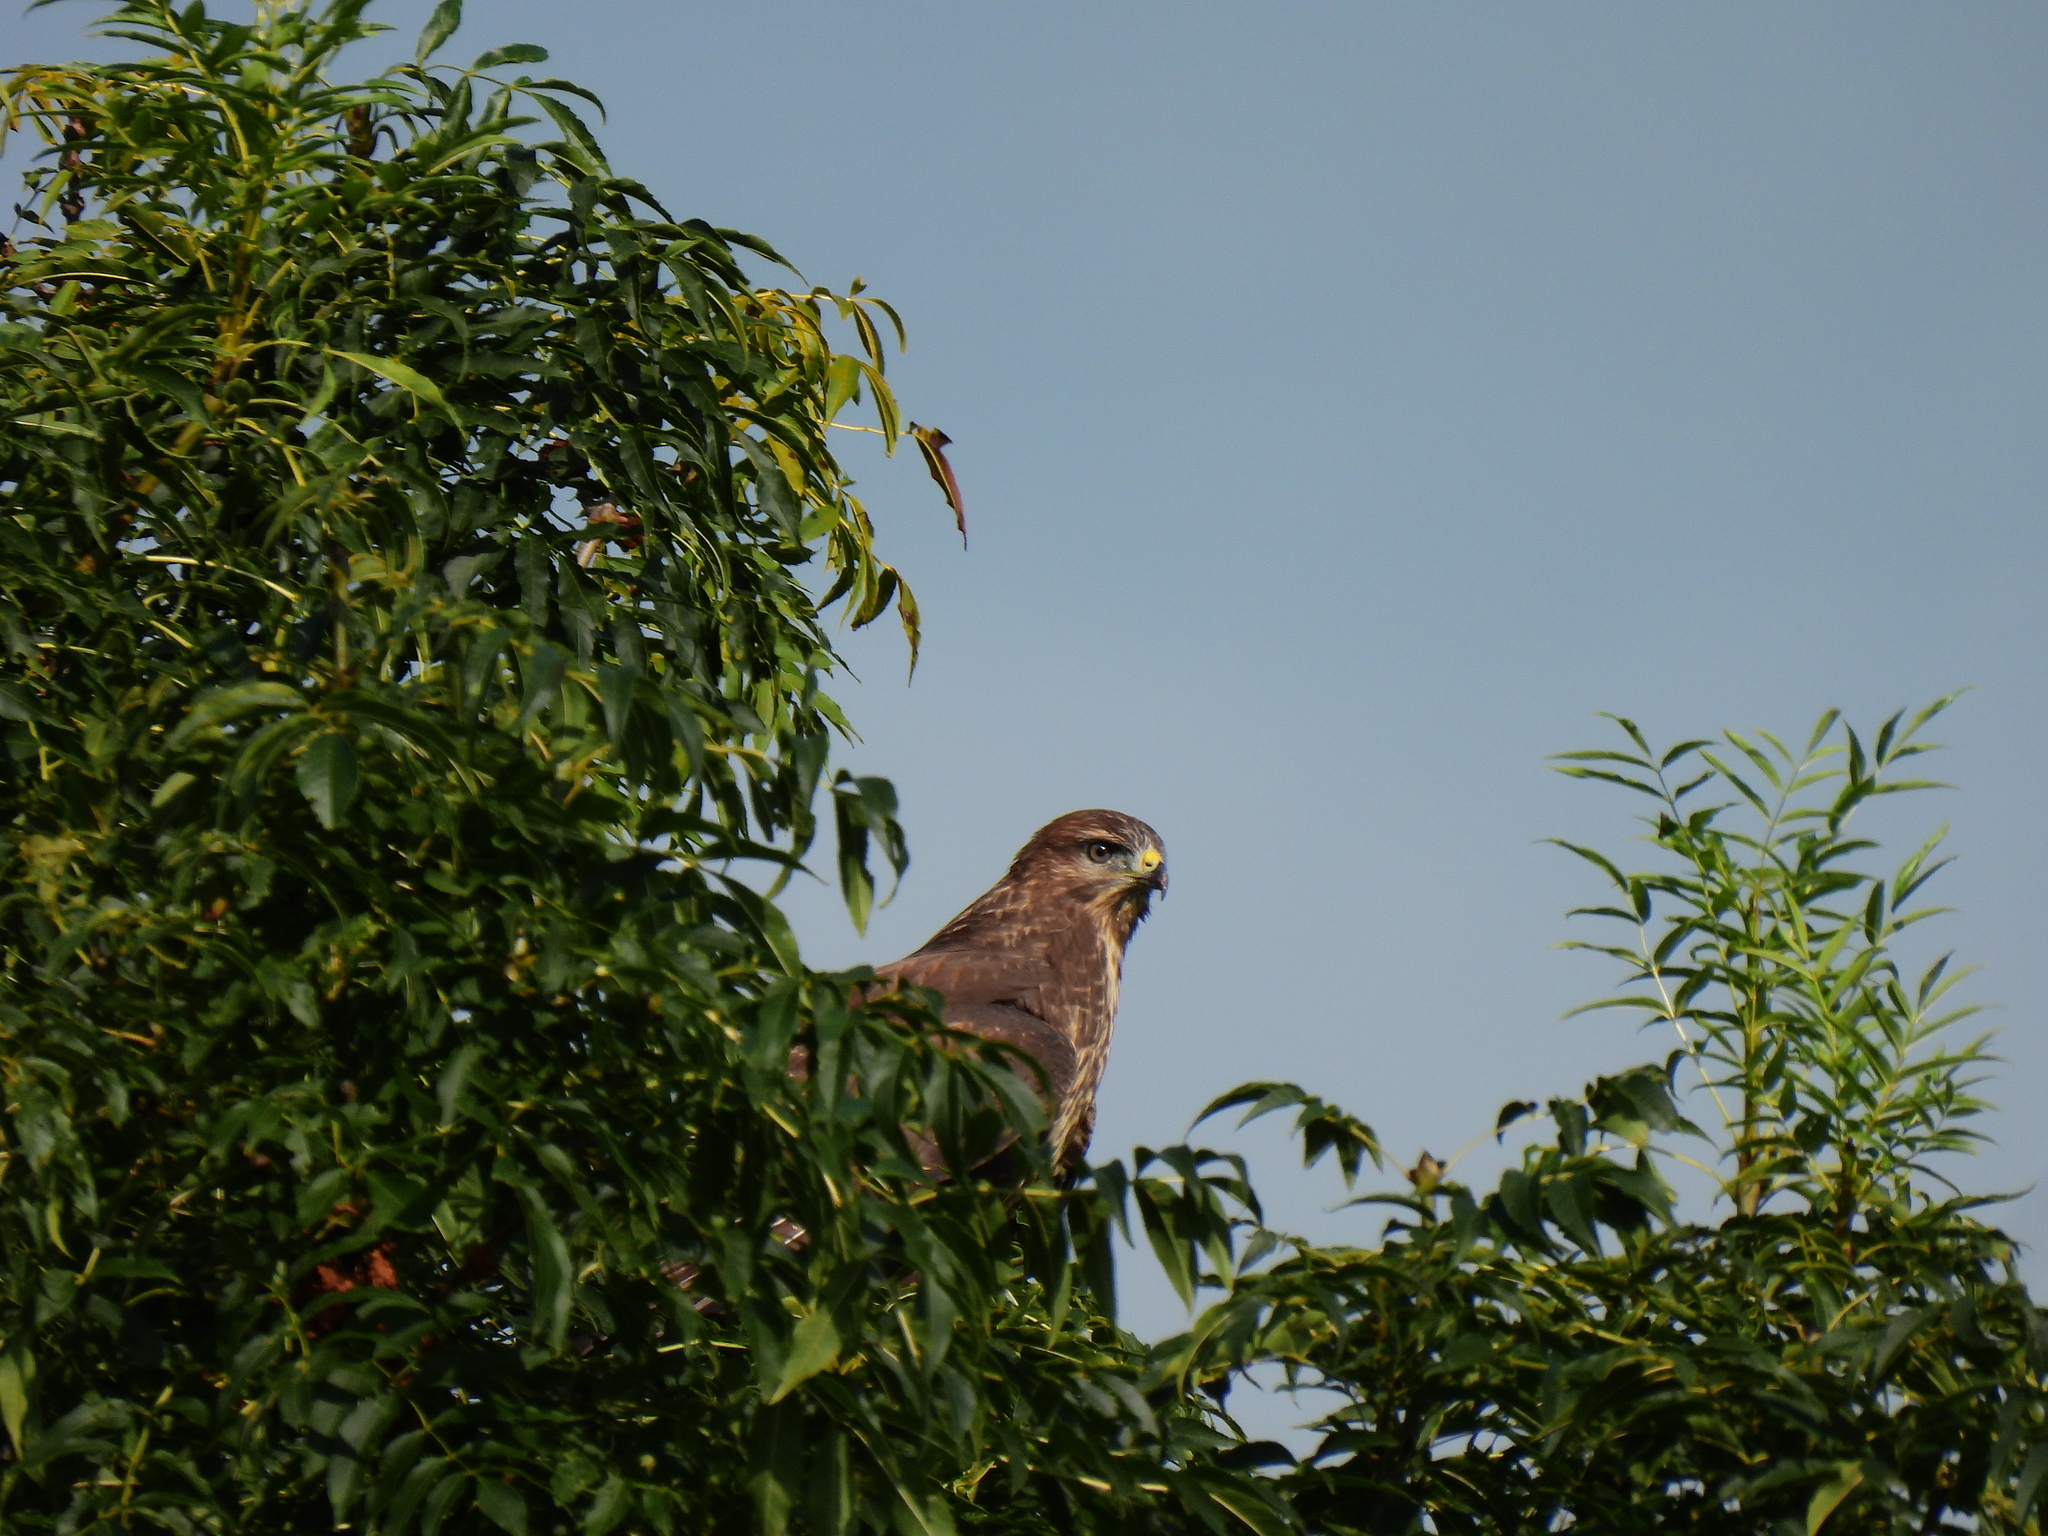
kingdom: Animalia
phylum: Chordata
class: Aves
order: Accipitriformes
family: Accipitridae
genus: Buteo
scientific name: Buteo buteo
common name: Common buzzard
